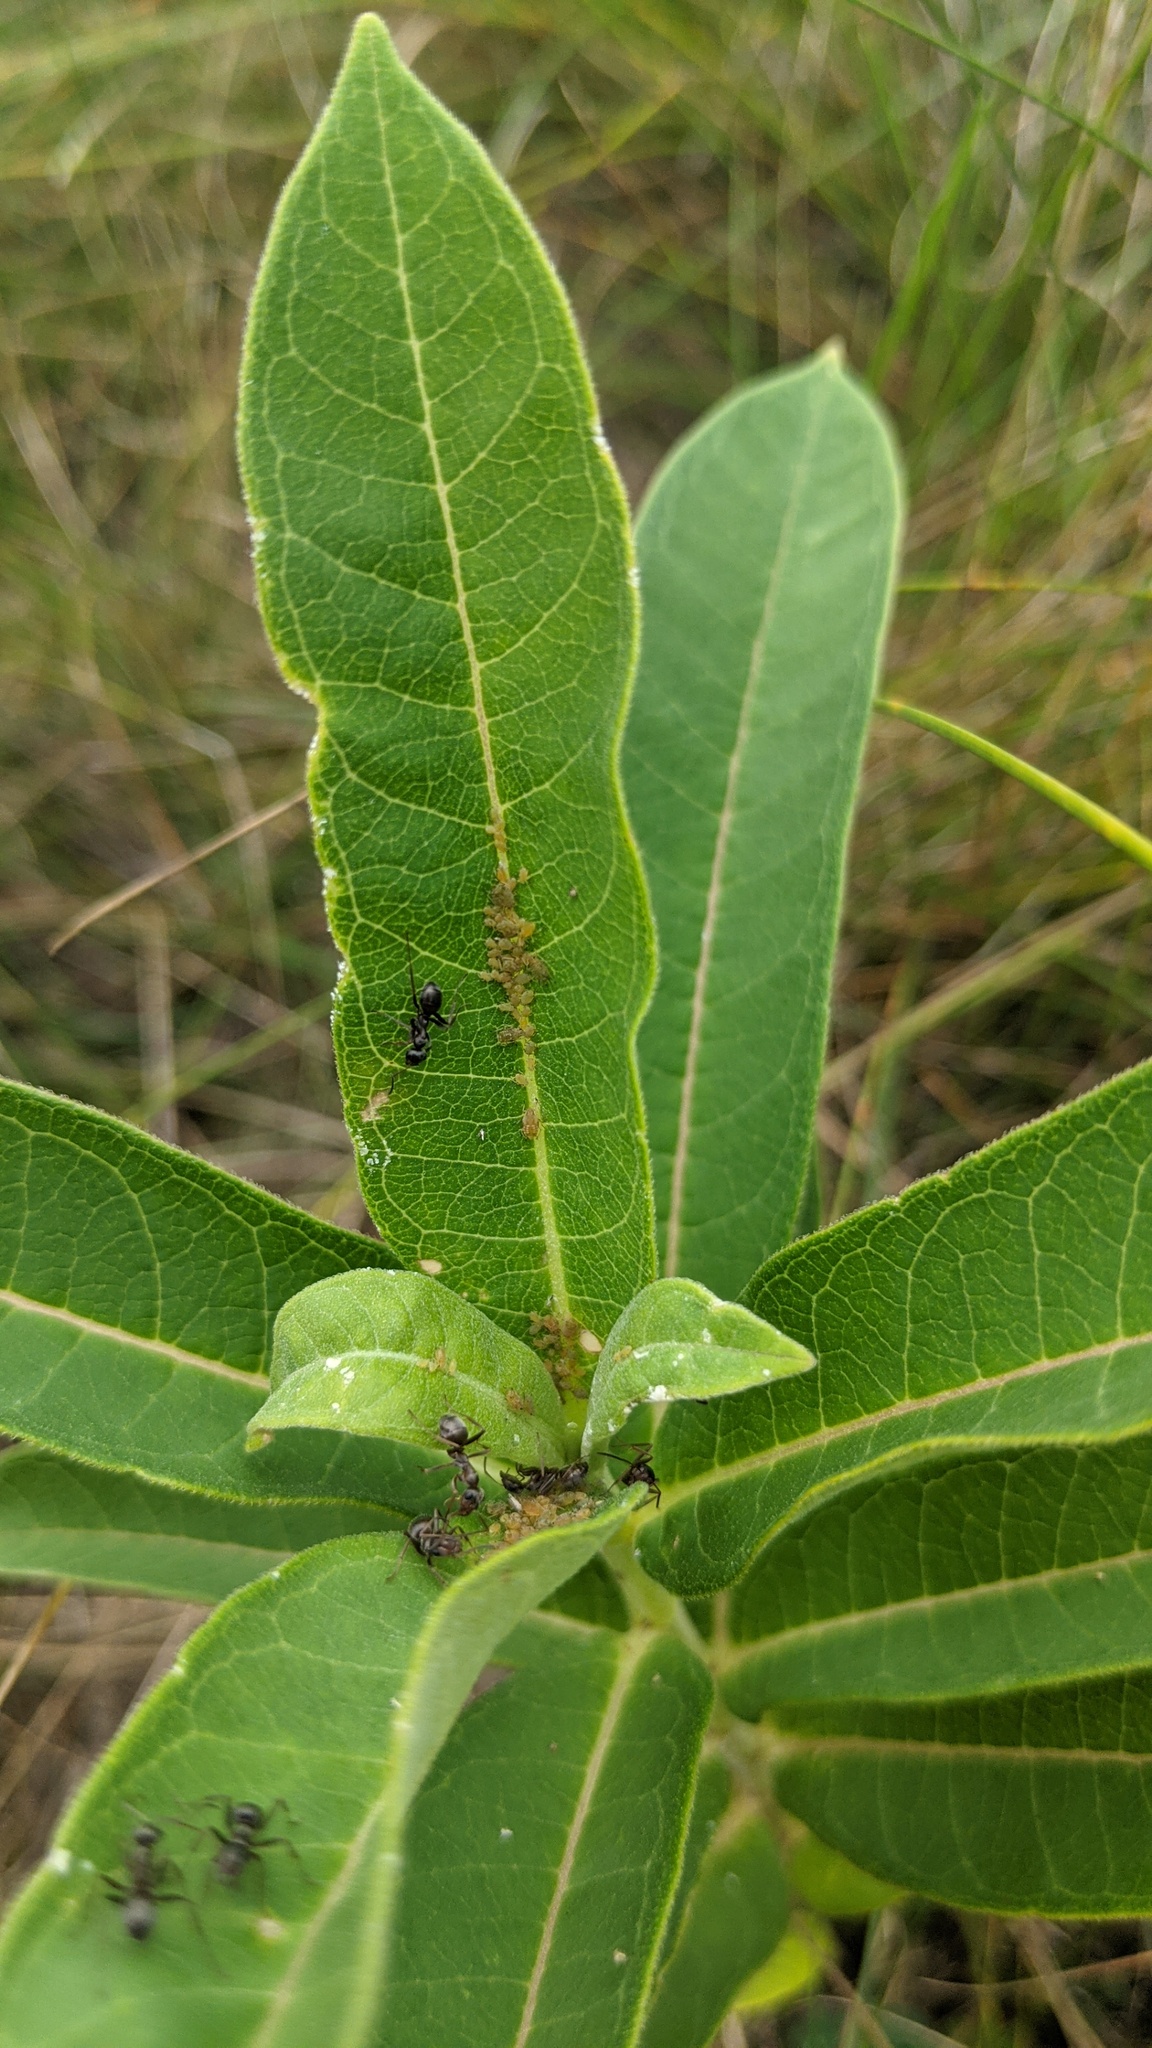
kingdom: Animalia
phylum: Arthropoda
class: Insecta
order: Hemiptera
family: Aphididae
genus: Aphis
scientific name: Aphis asclepiadis
